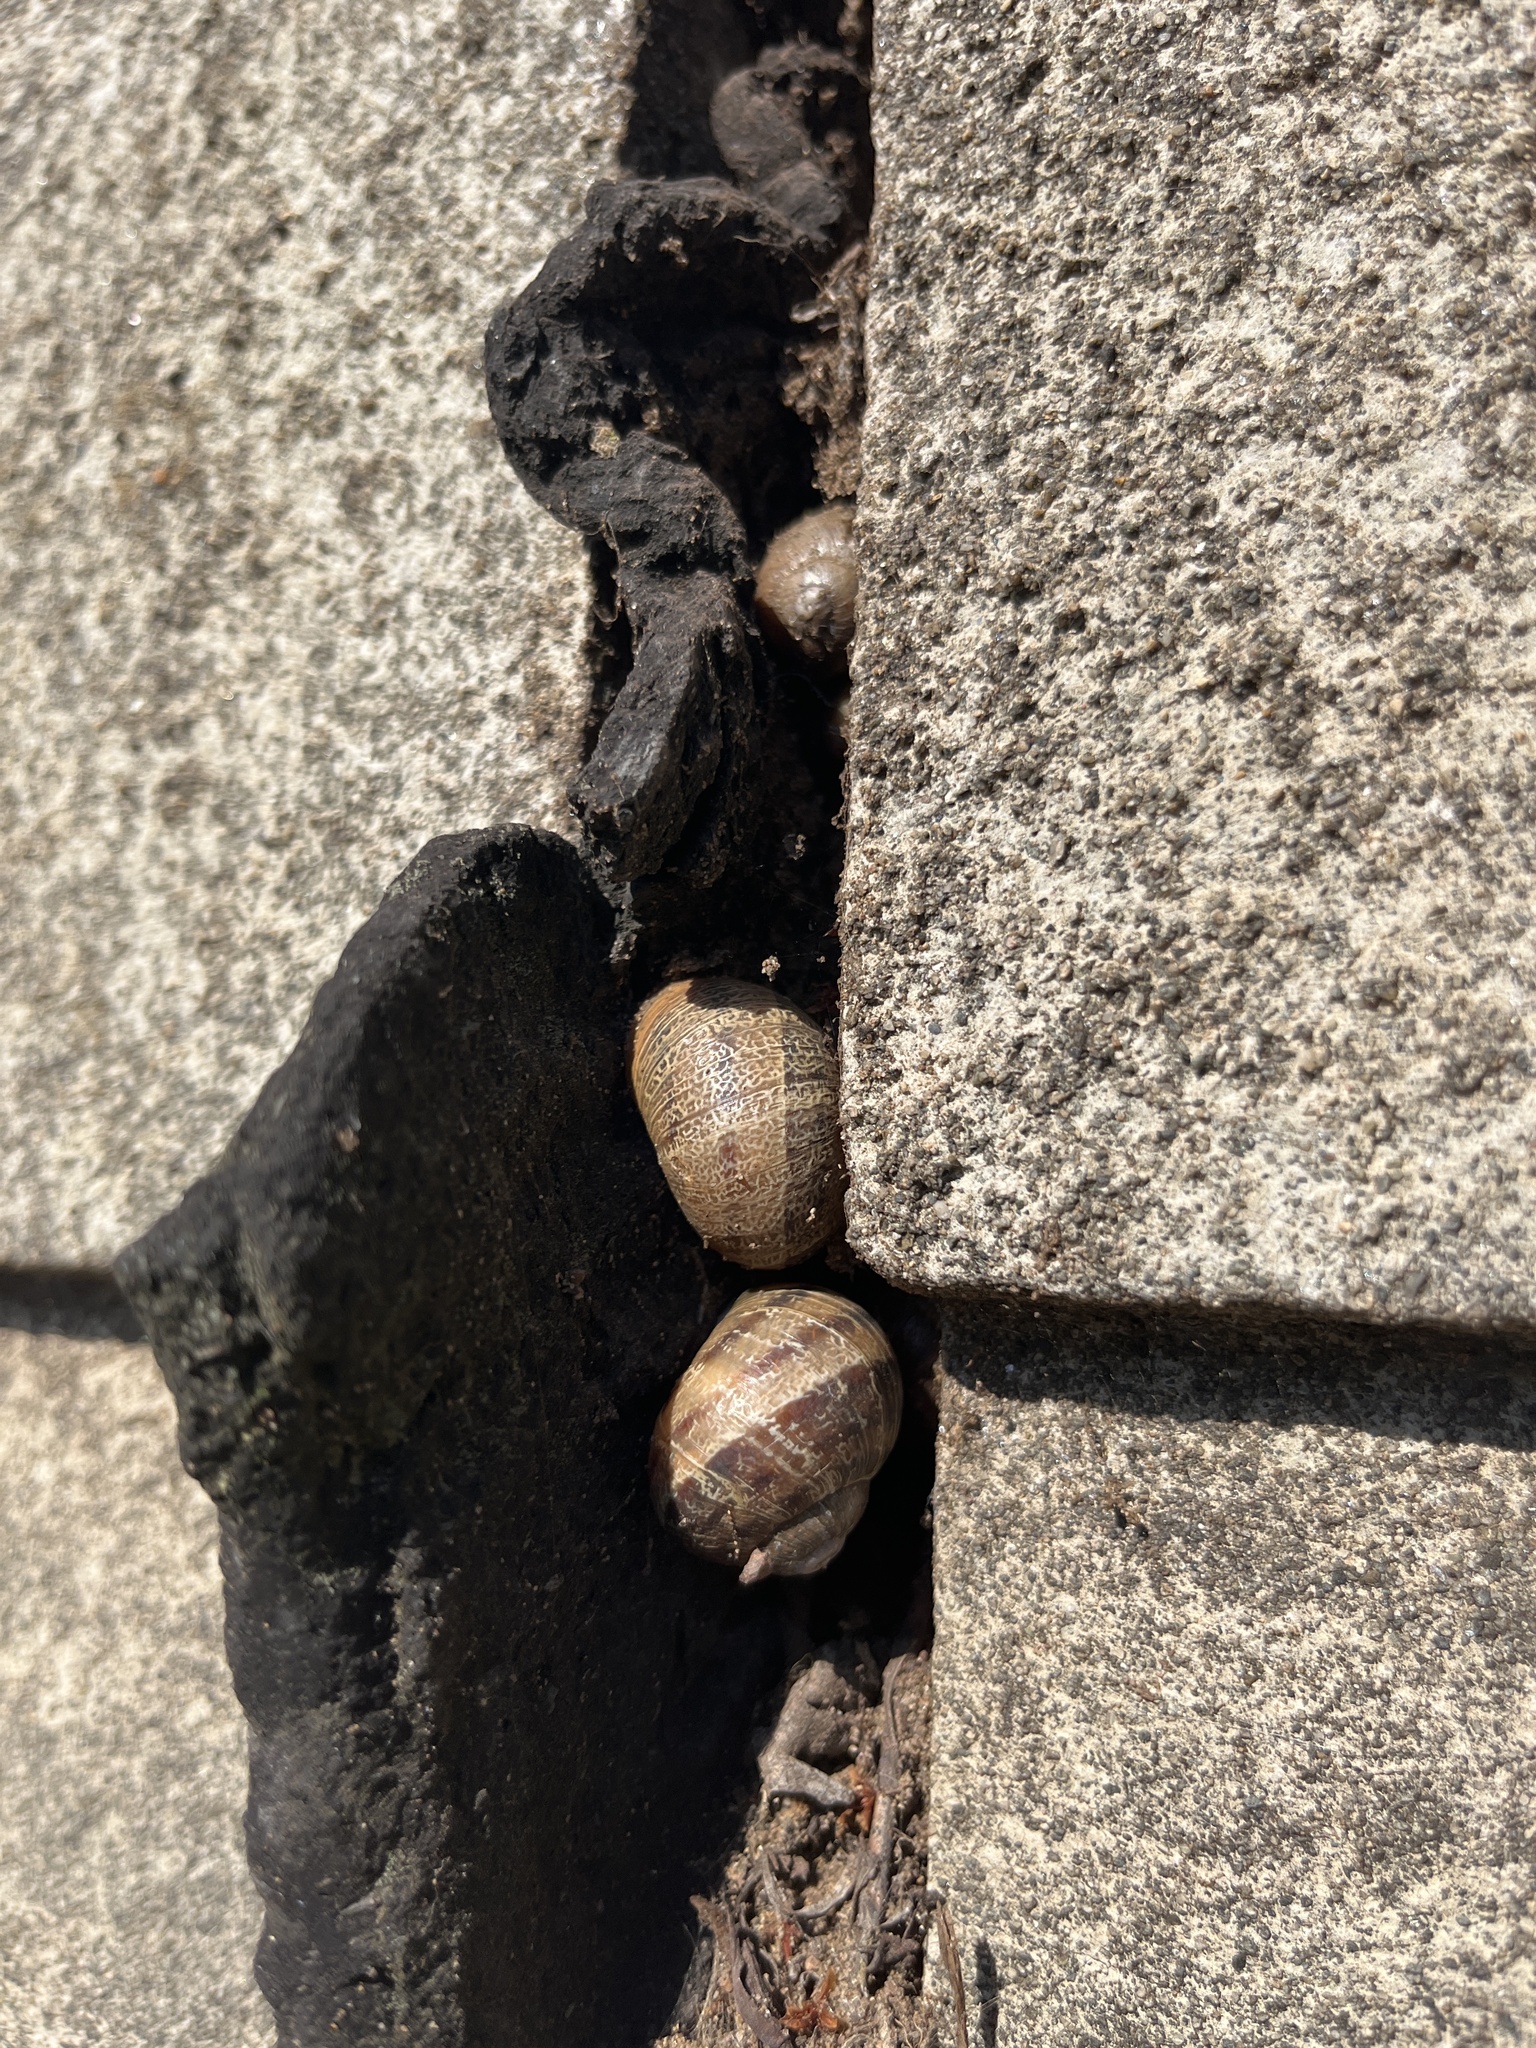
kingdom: Animalia
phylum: Mollusca
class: Gastropoda
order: Stylommatophora
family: Helicidae
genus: Cornu
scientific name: Cornu aspersum
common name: Brown garden snail
